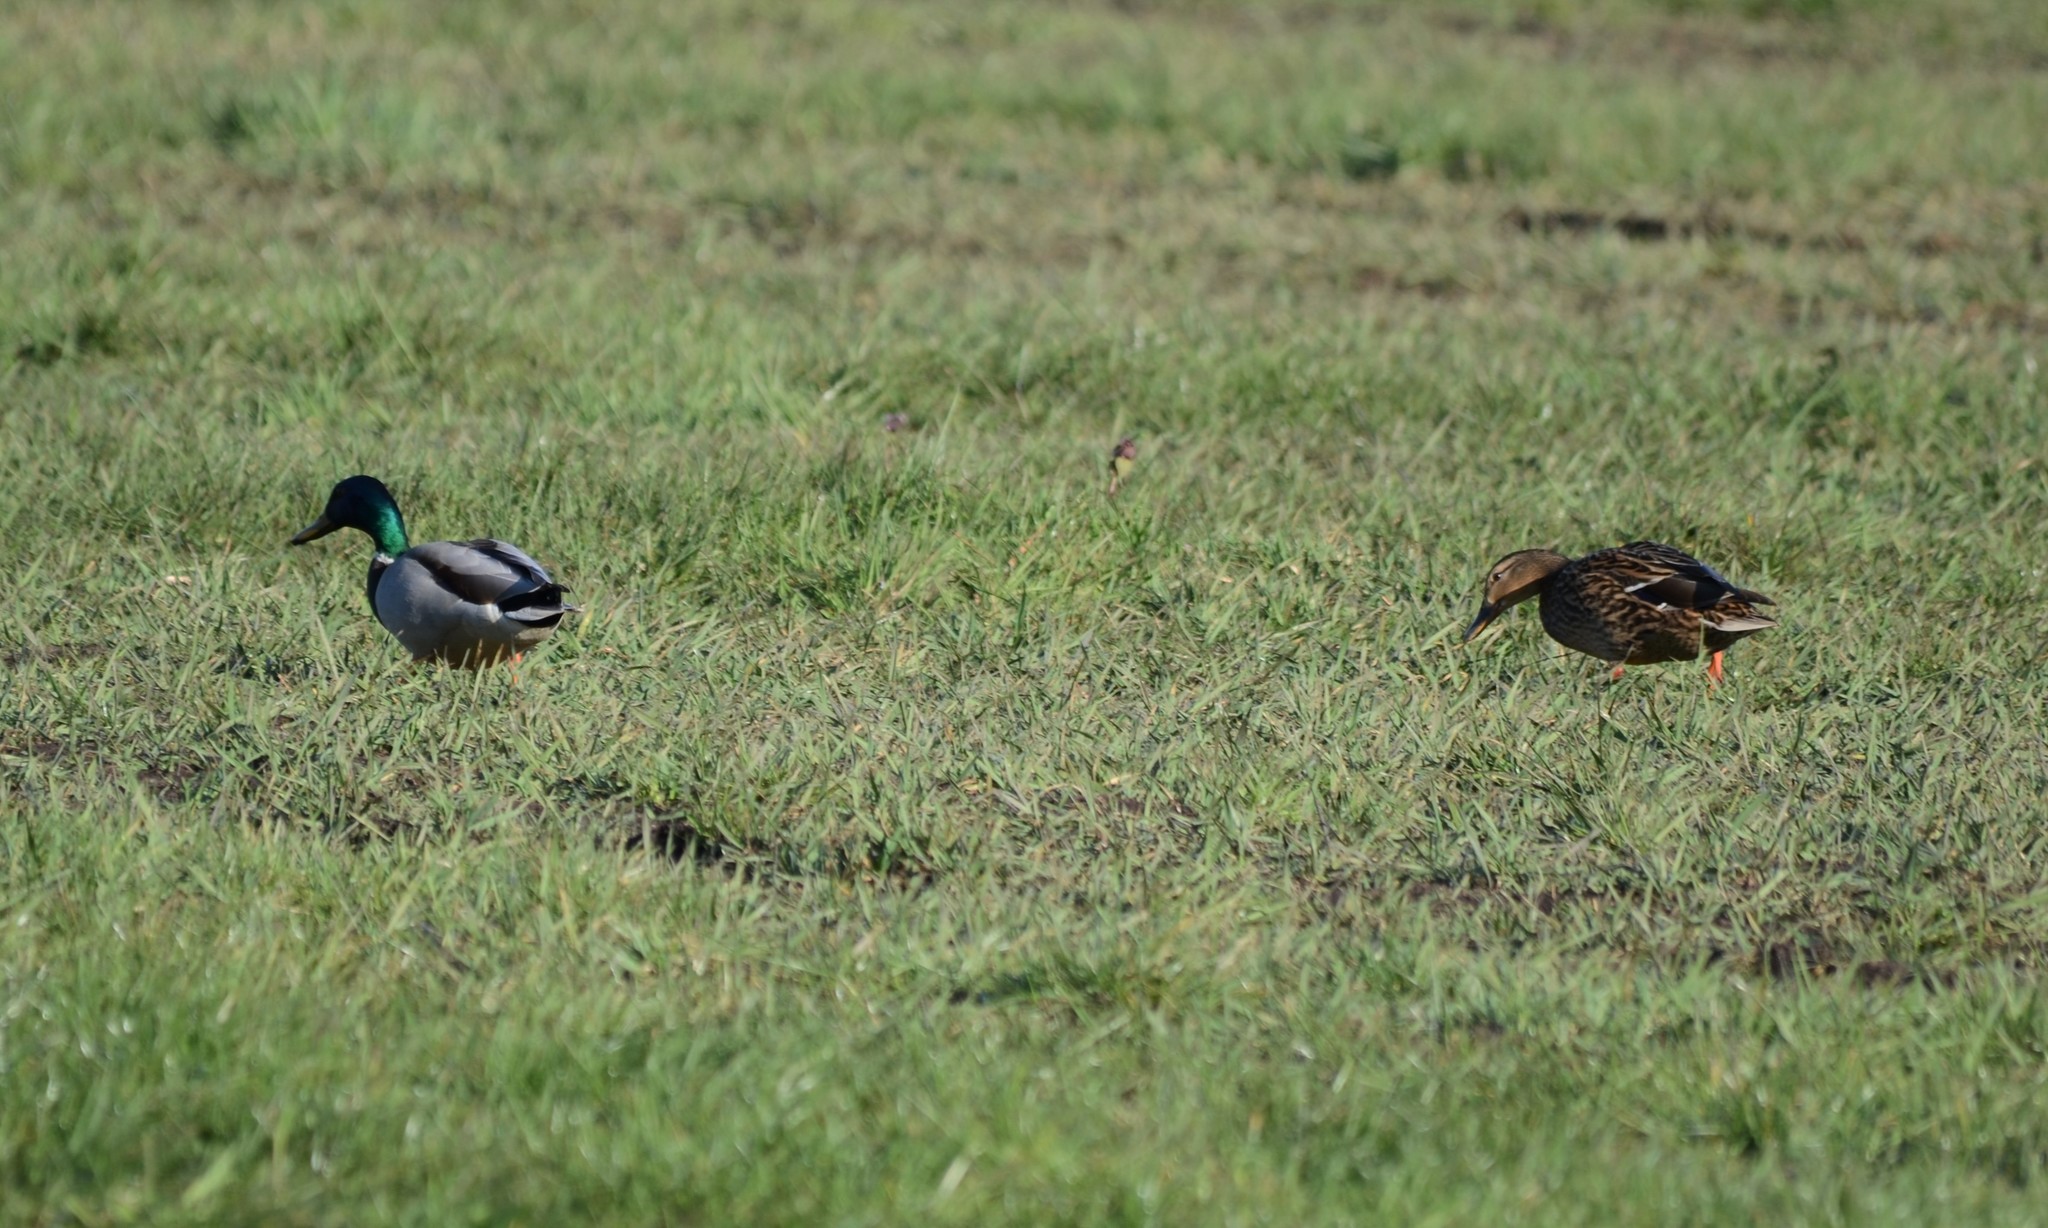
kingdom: Animalia
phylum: Chordata
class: Aves
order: Anseriformes
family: Anatidae
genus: Anas
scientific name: Anas platyrhynchos
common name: Mallard
